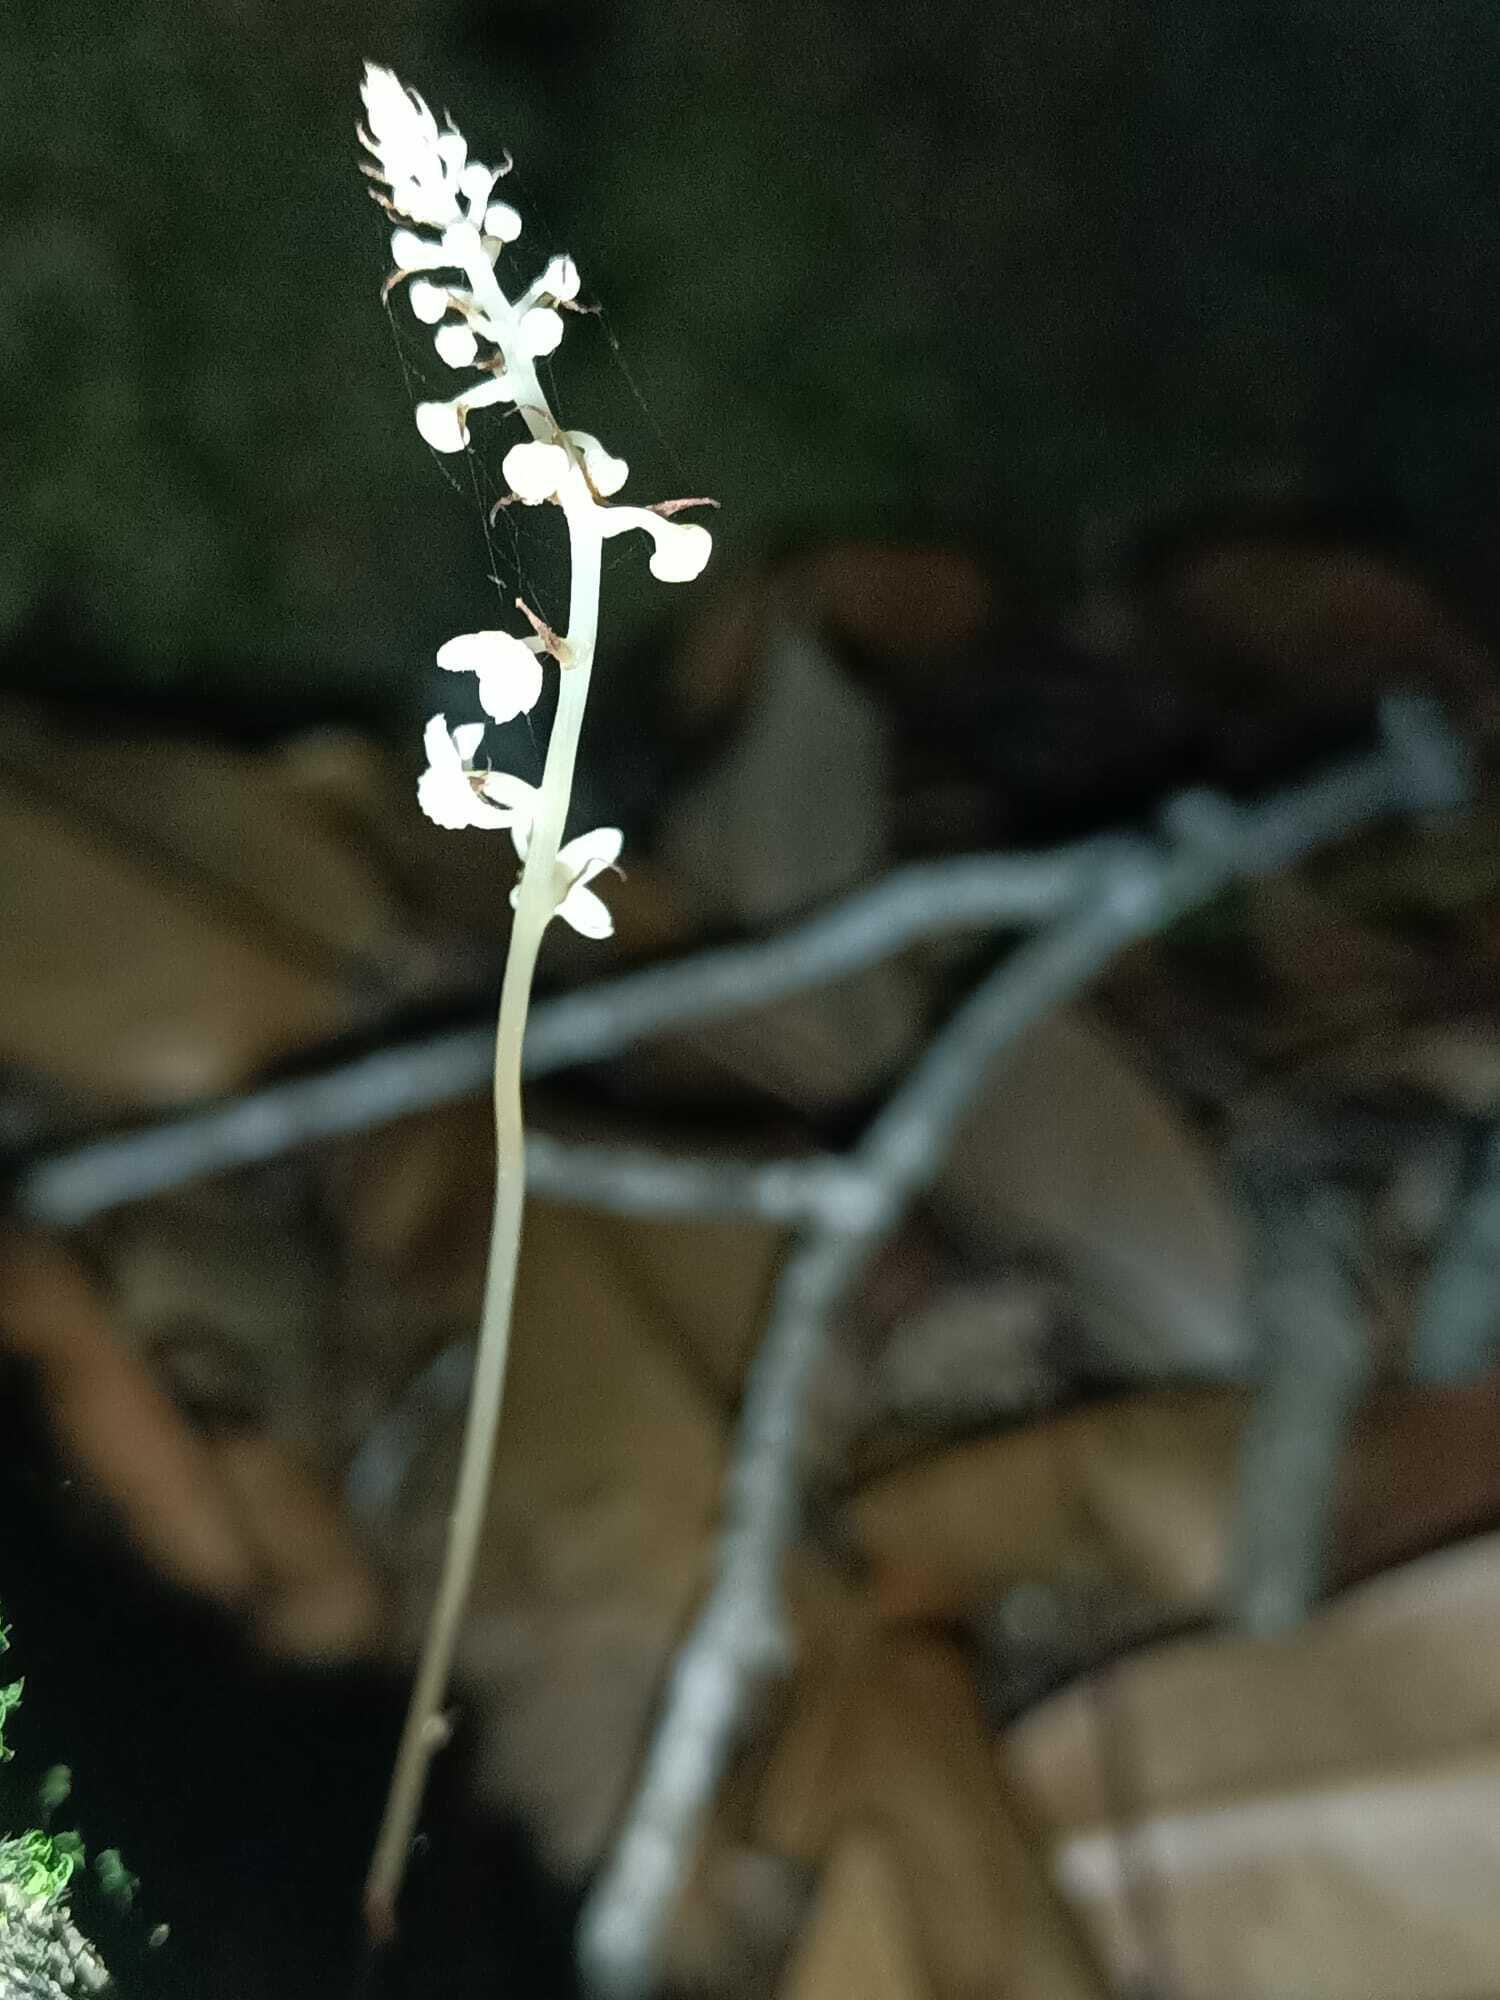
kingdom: Plantae
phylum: Tracheophyta
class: Liliopsida
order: Pandanales
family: Triuridaceae
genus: Soridium
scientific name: Soridium spruceanum
